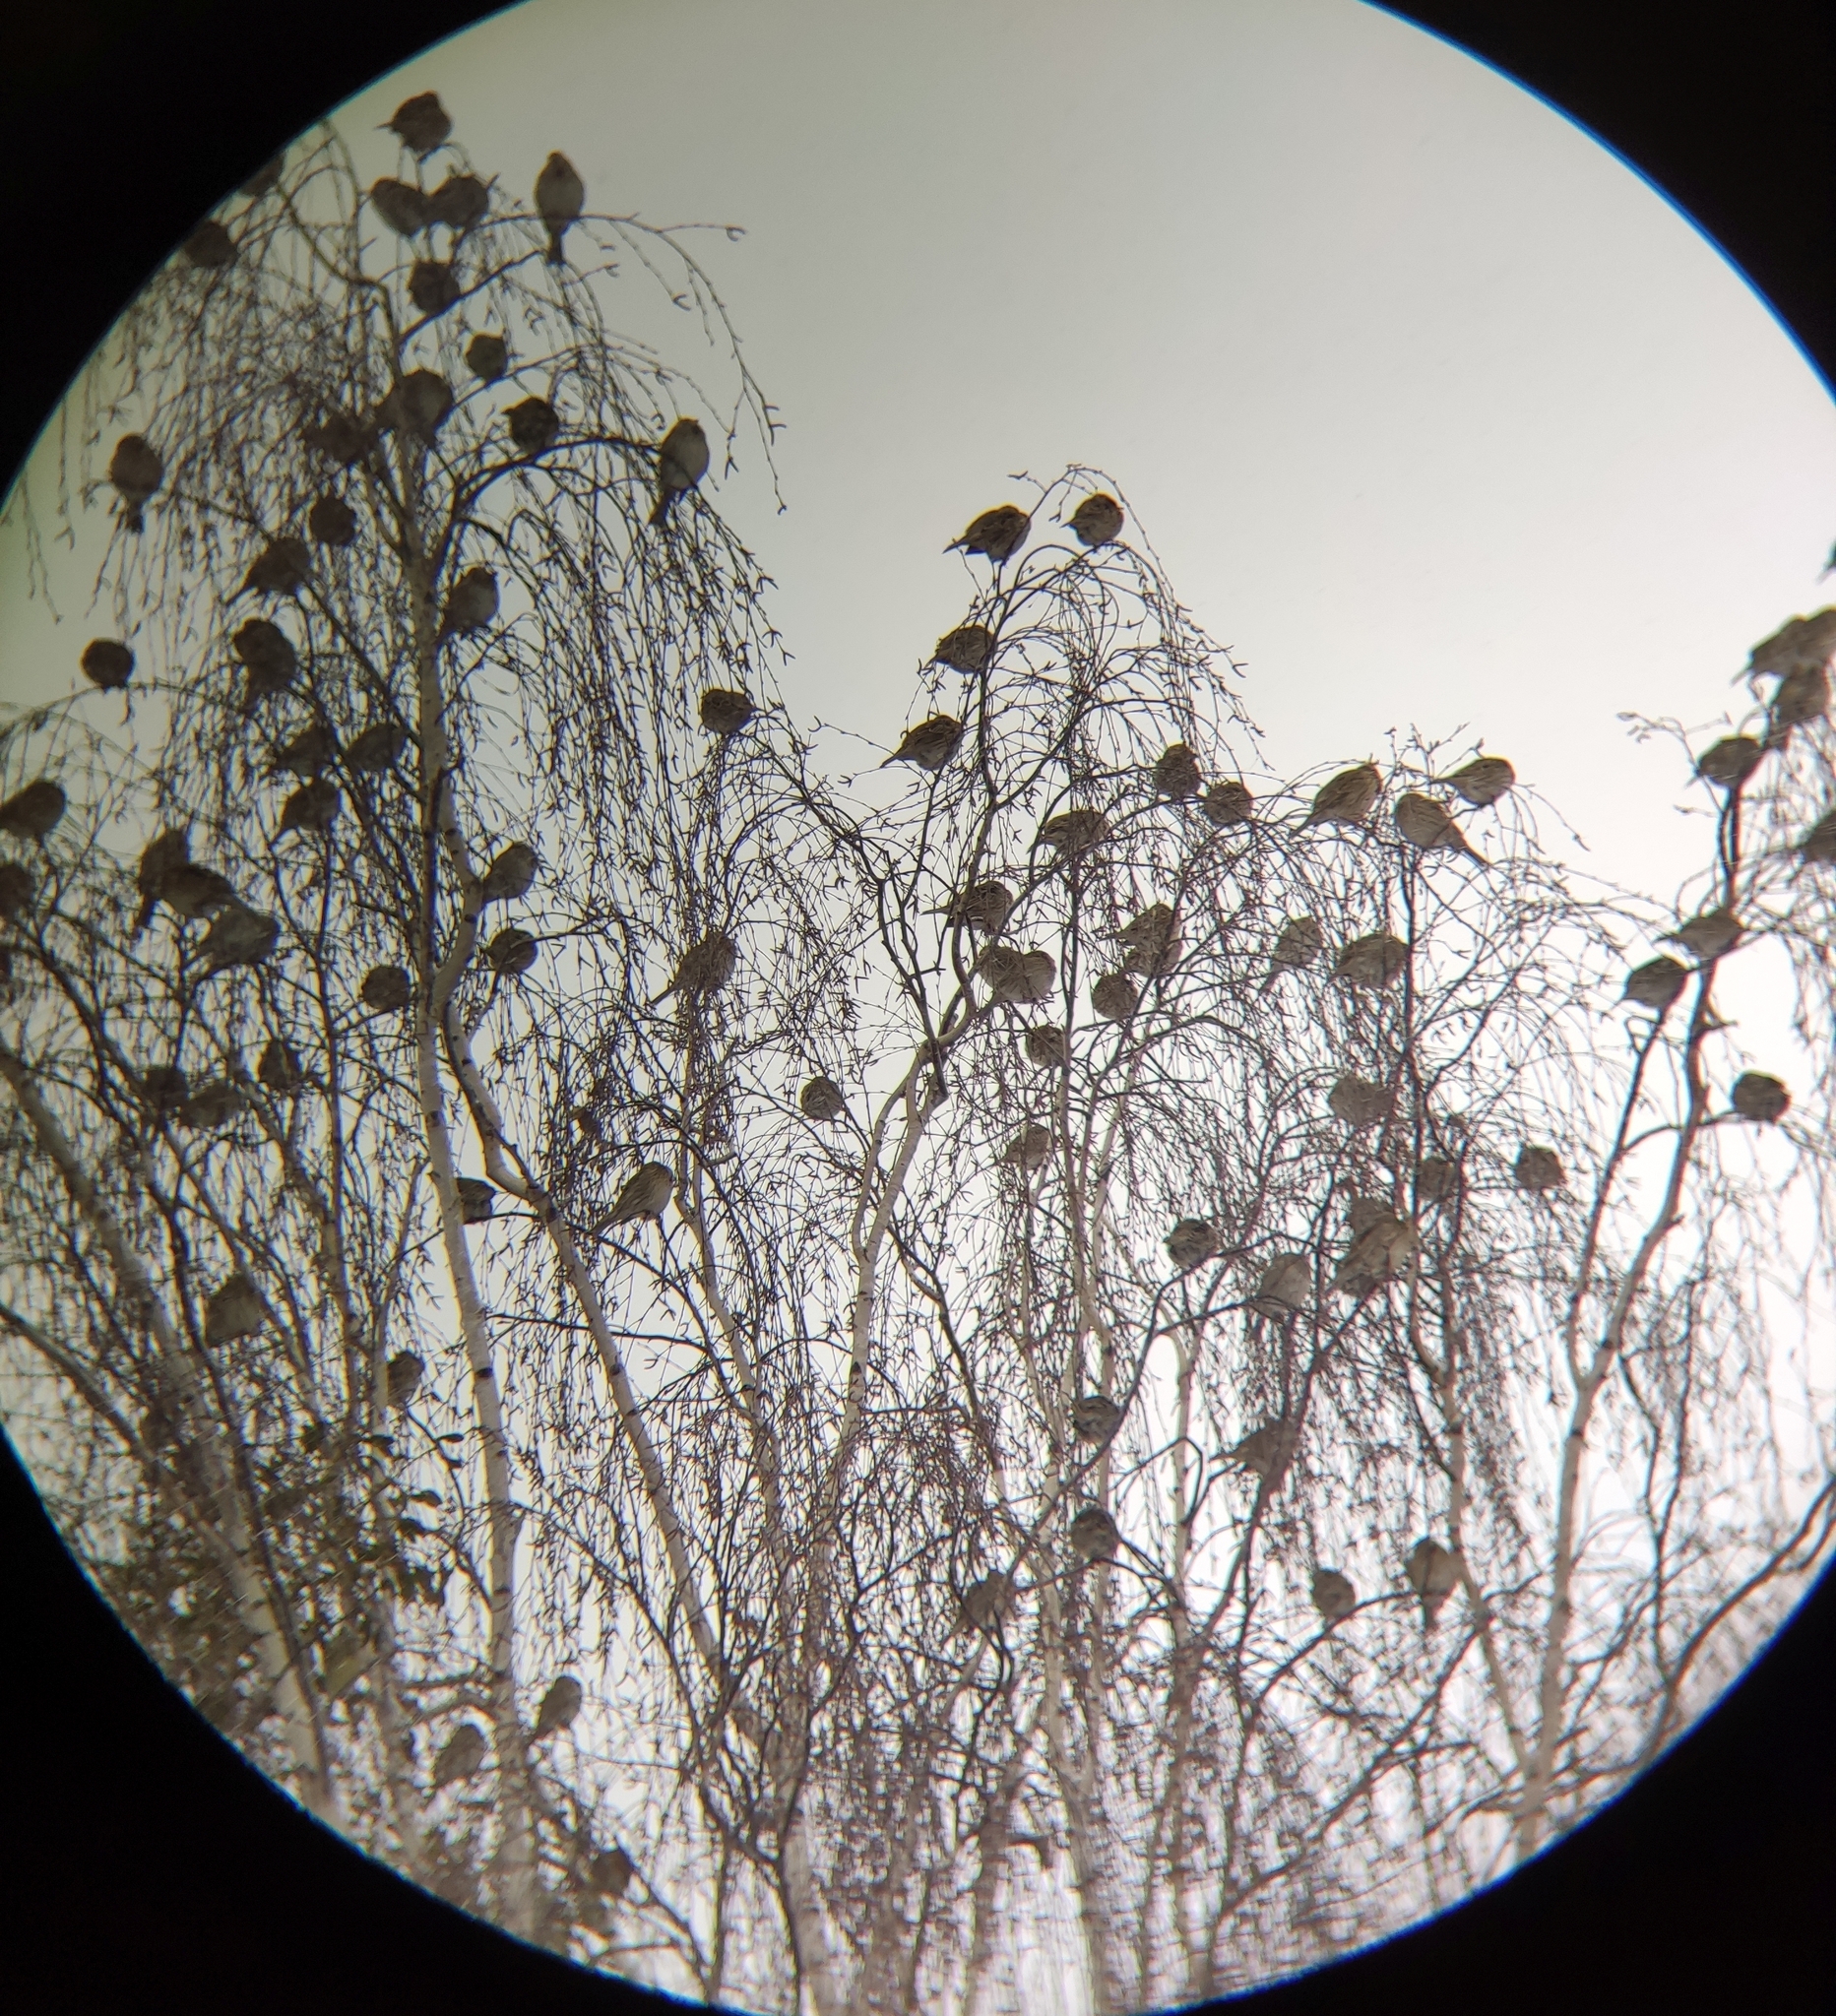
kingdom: Animalia
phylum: Chordata
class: Aves
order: Passeriformes
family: Emberizidae
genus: Emberiza
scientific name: Emberiza calandra
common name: Corn bunting
